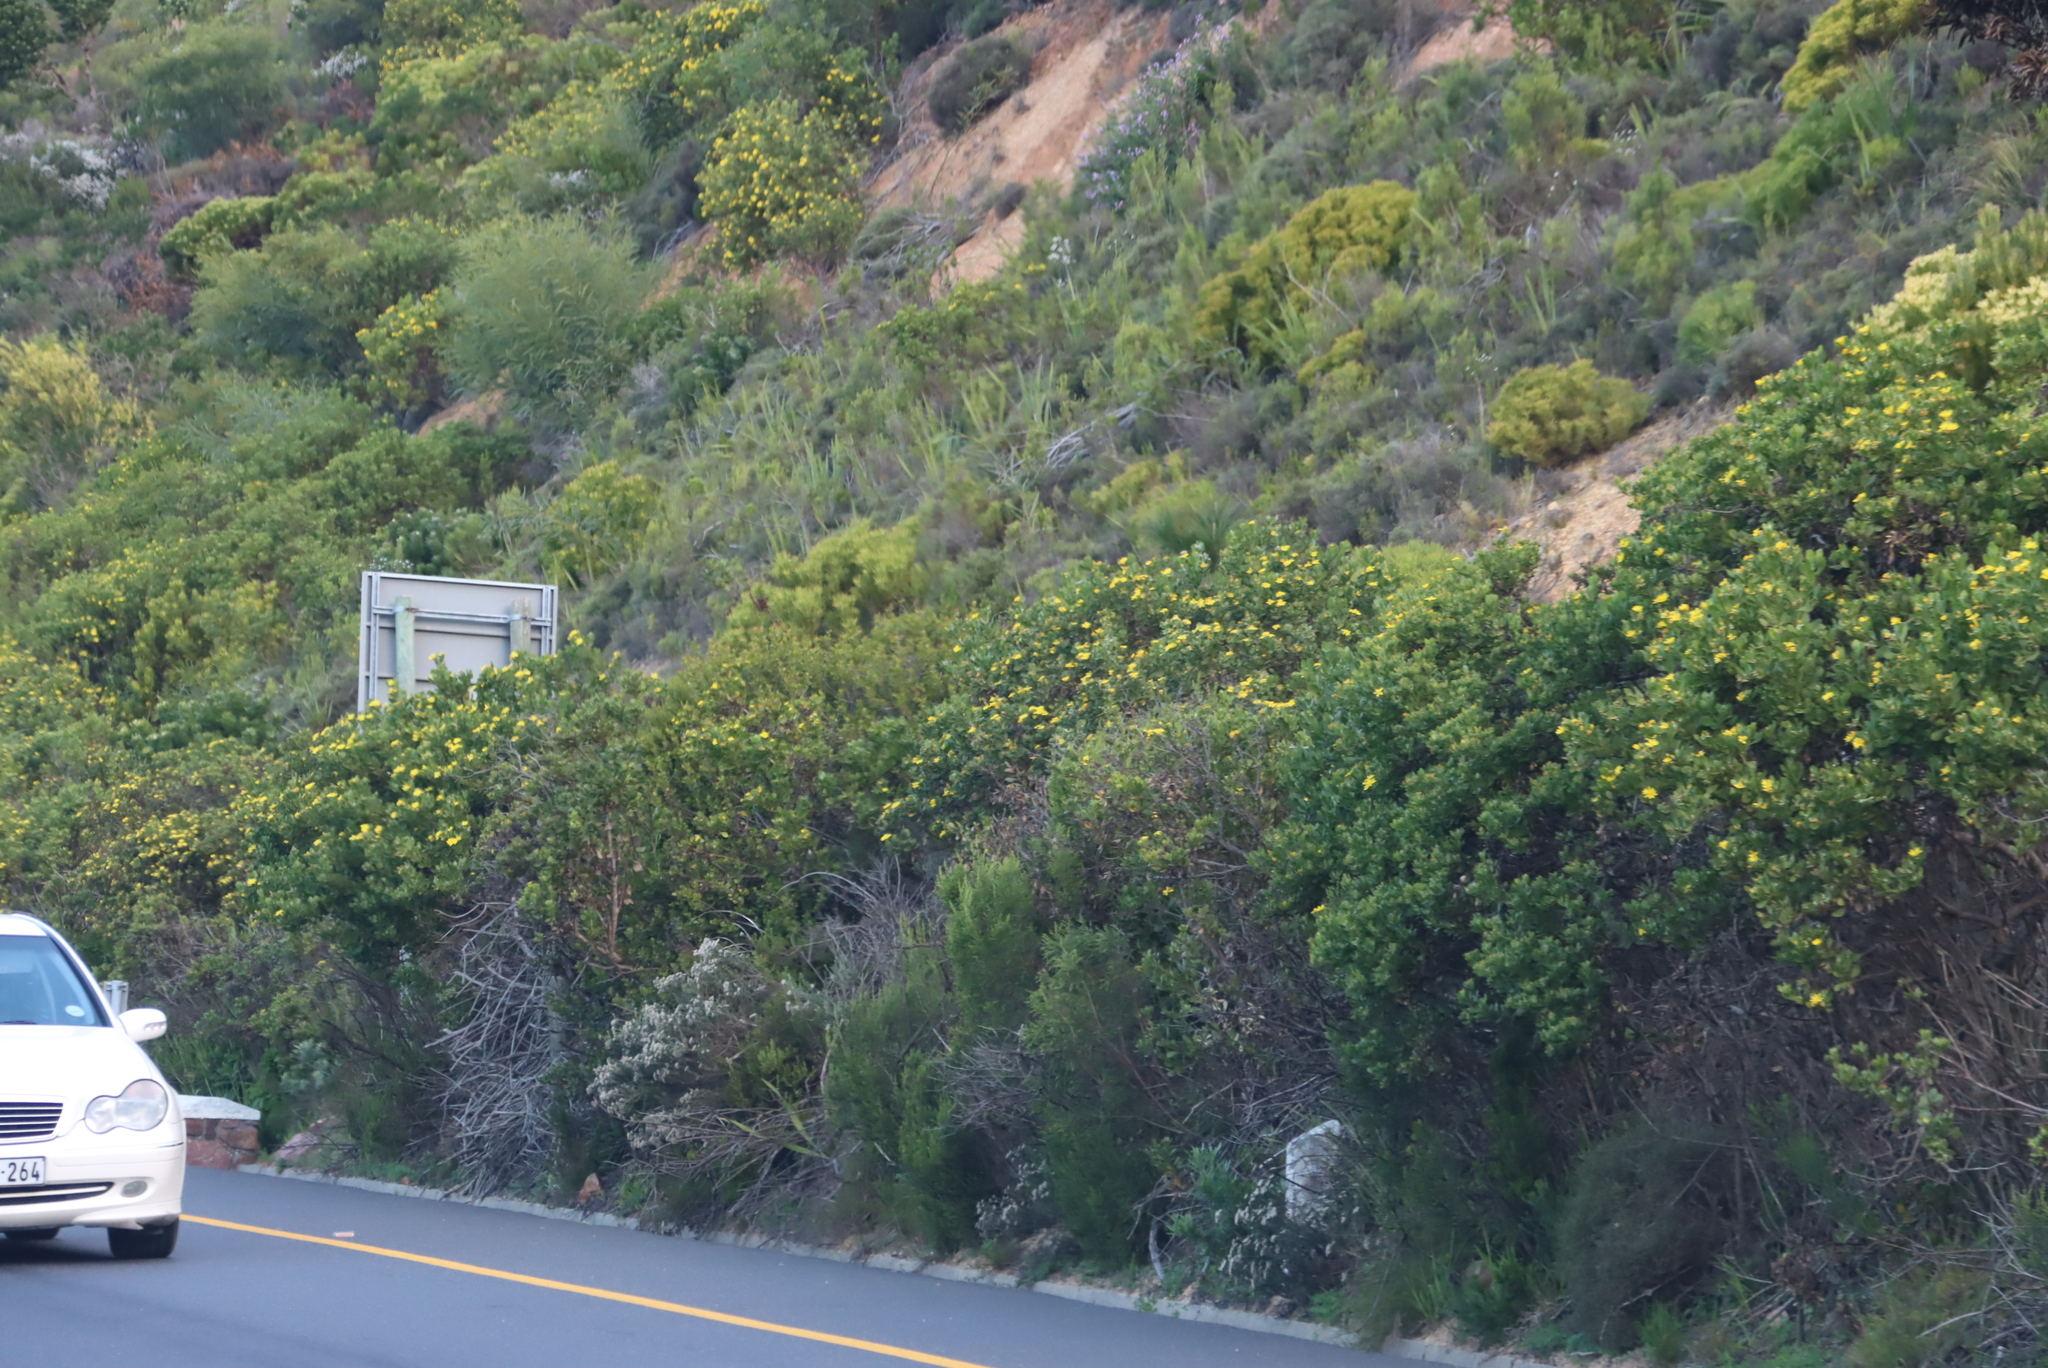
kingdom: Plantae
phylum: Tracheophyta
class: Magnoliopsida
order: Asterales
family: Asteraceae
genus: Osteospermum
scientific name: Osteospermum moniliferum
